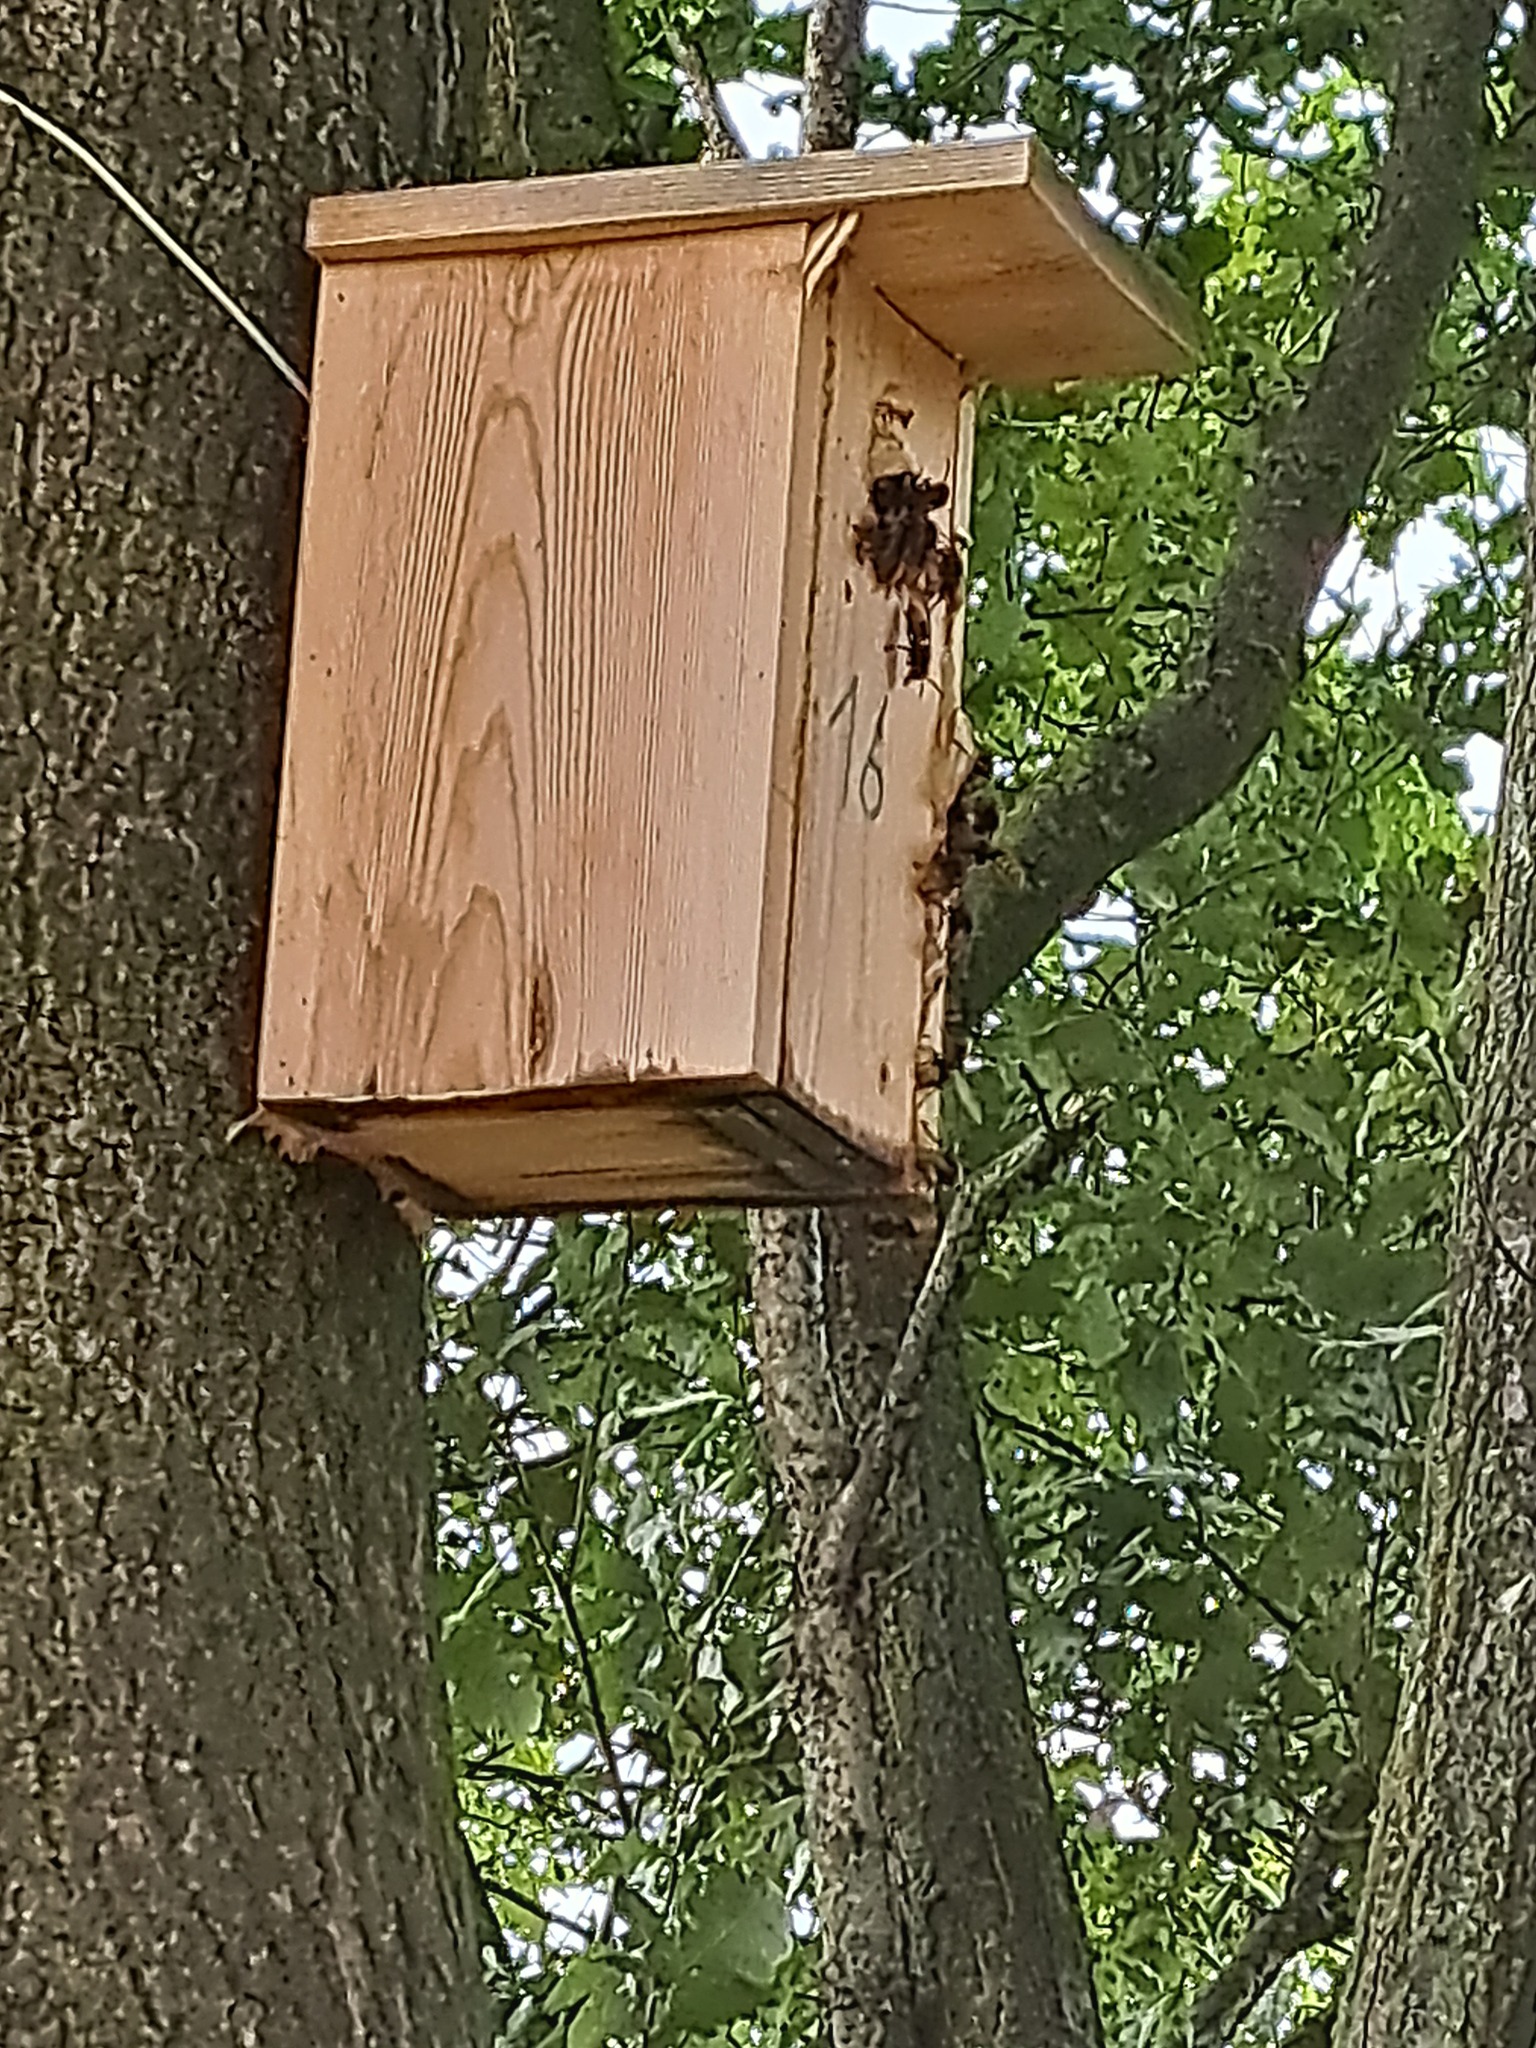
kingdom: Animalia
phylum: Arthropoda
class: Insecta
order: Hymenoptera
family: Vespidae
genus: Vespa
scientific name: Vespa crabro
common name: Hornet
